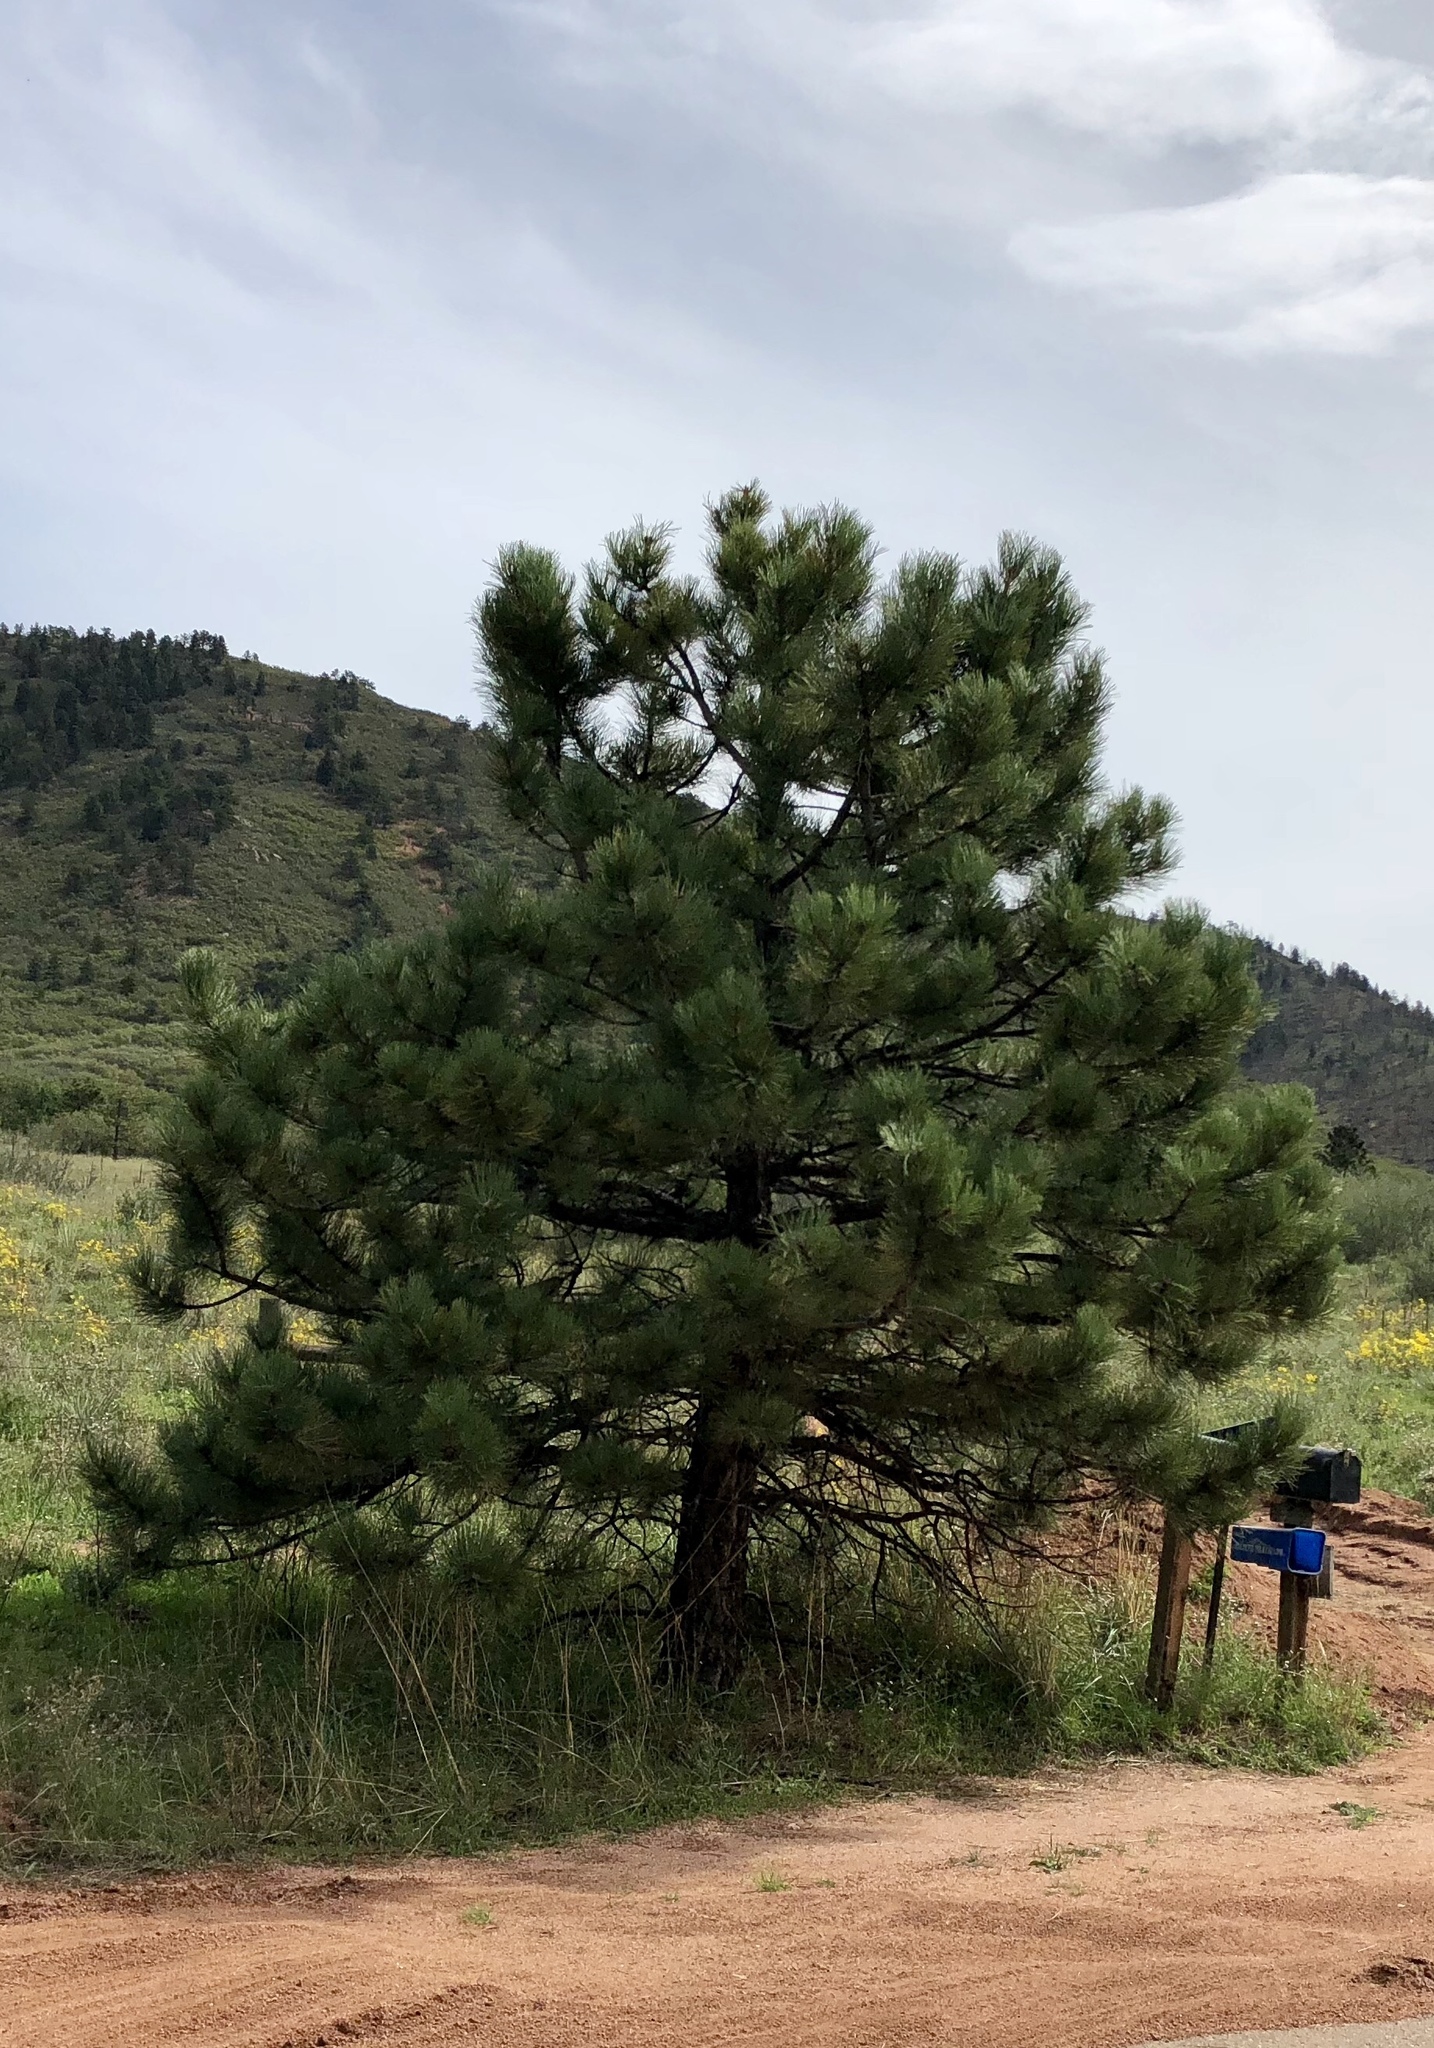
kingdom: Plantae
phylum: Tracheophyta
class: Pinopsida
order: Pinales
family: Pinaceae
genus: Pinus
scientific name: Pinus ponderosa
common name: Western yellow-pine
